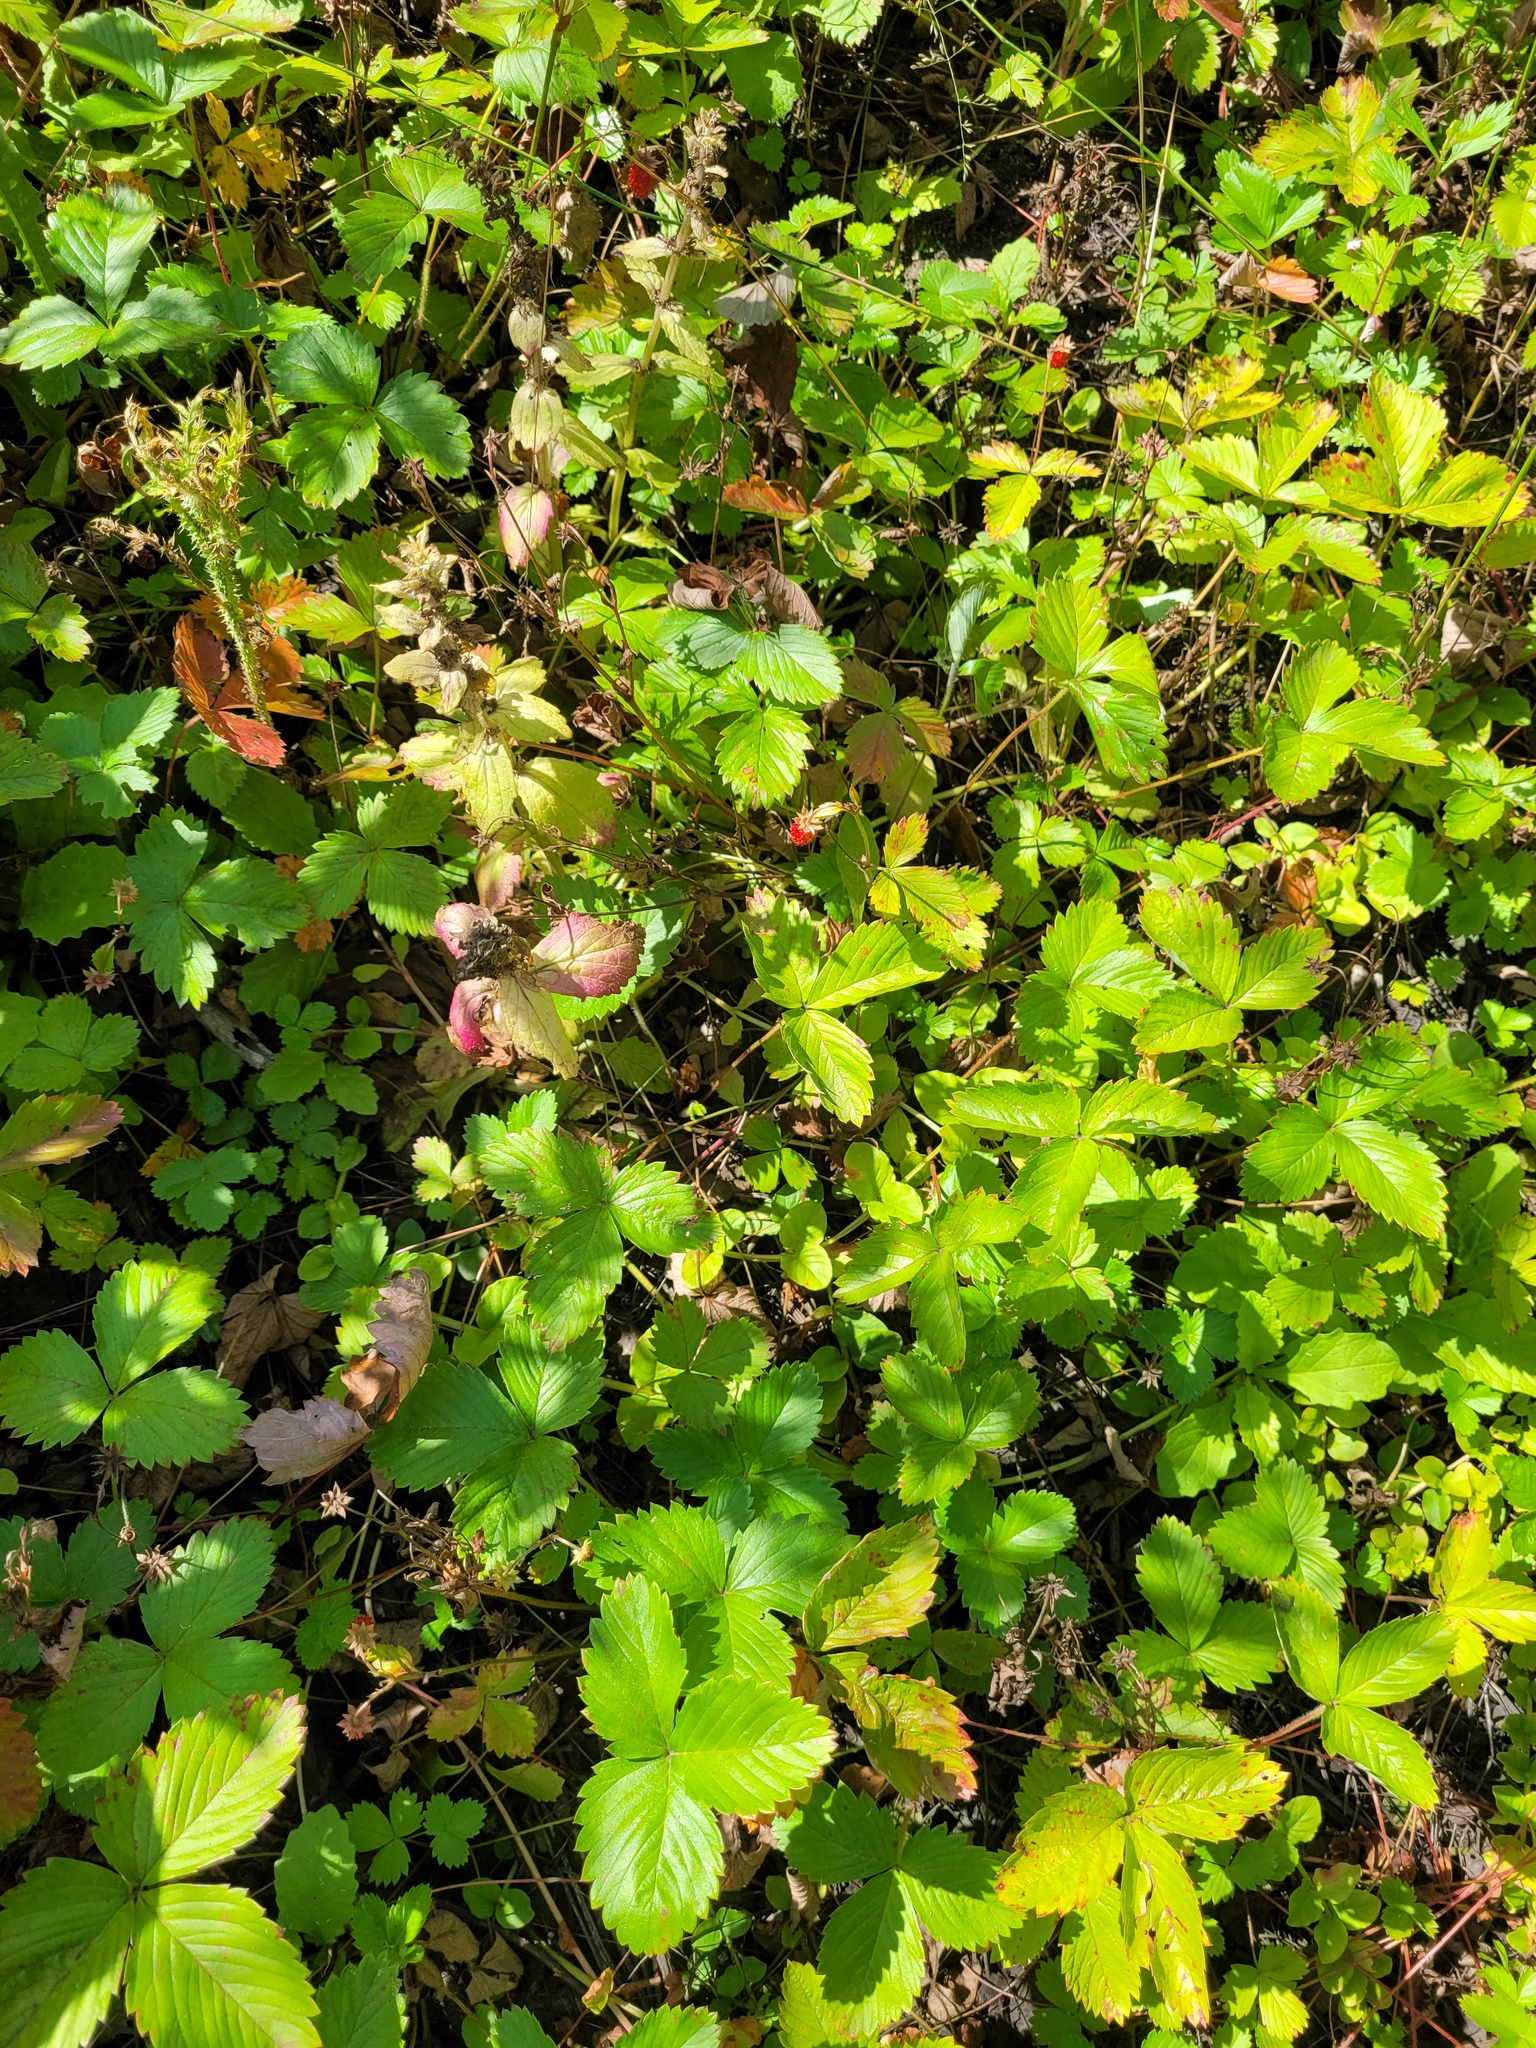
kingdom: Plantae
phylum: Tracheophyta
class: Magnoliopsida
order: Rosales
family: Rosaceae
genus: Fragaria
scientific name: Fragaria vesca
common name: Wild strawberry
